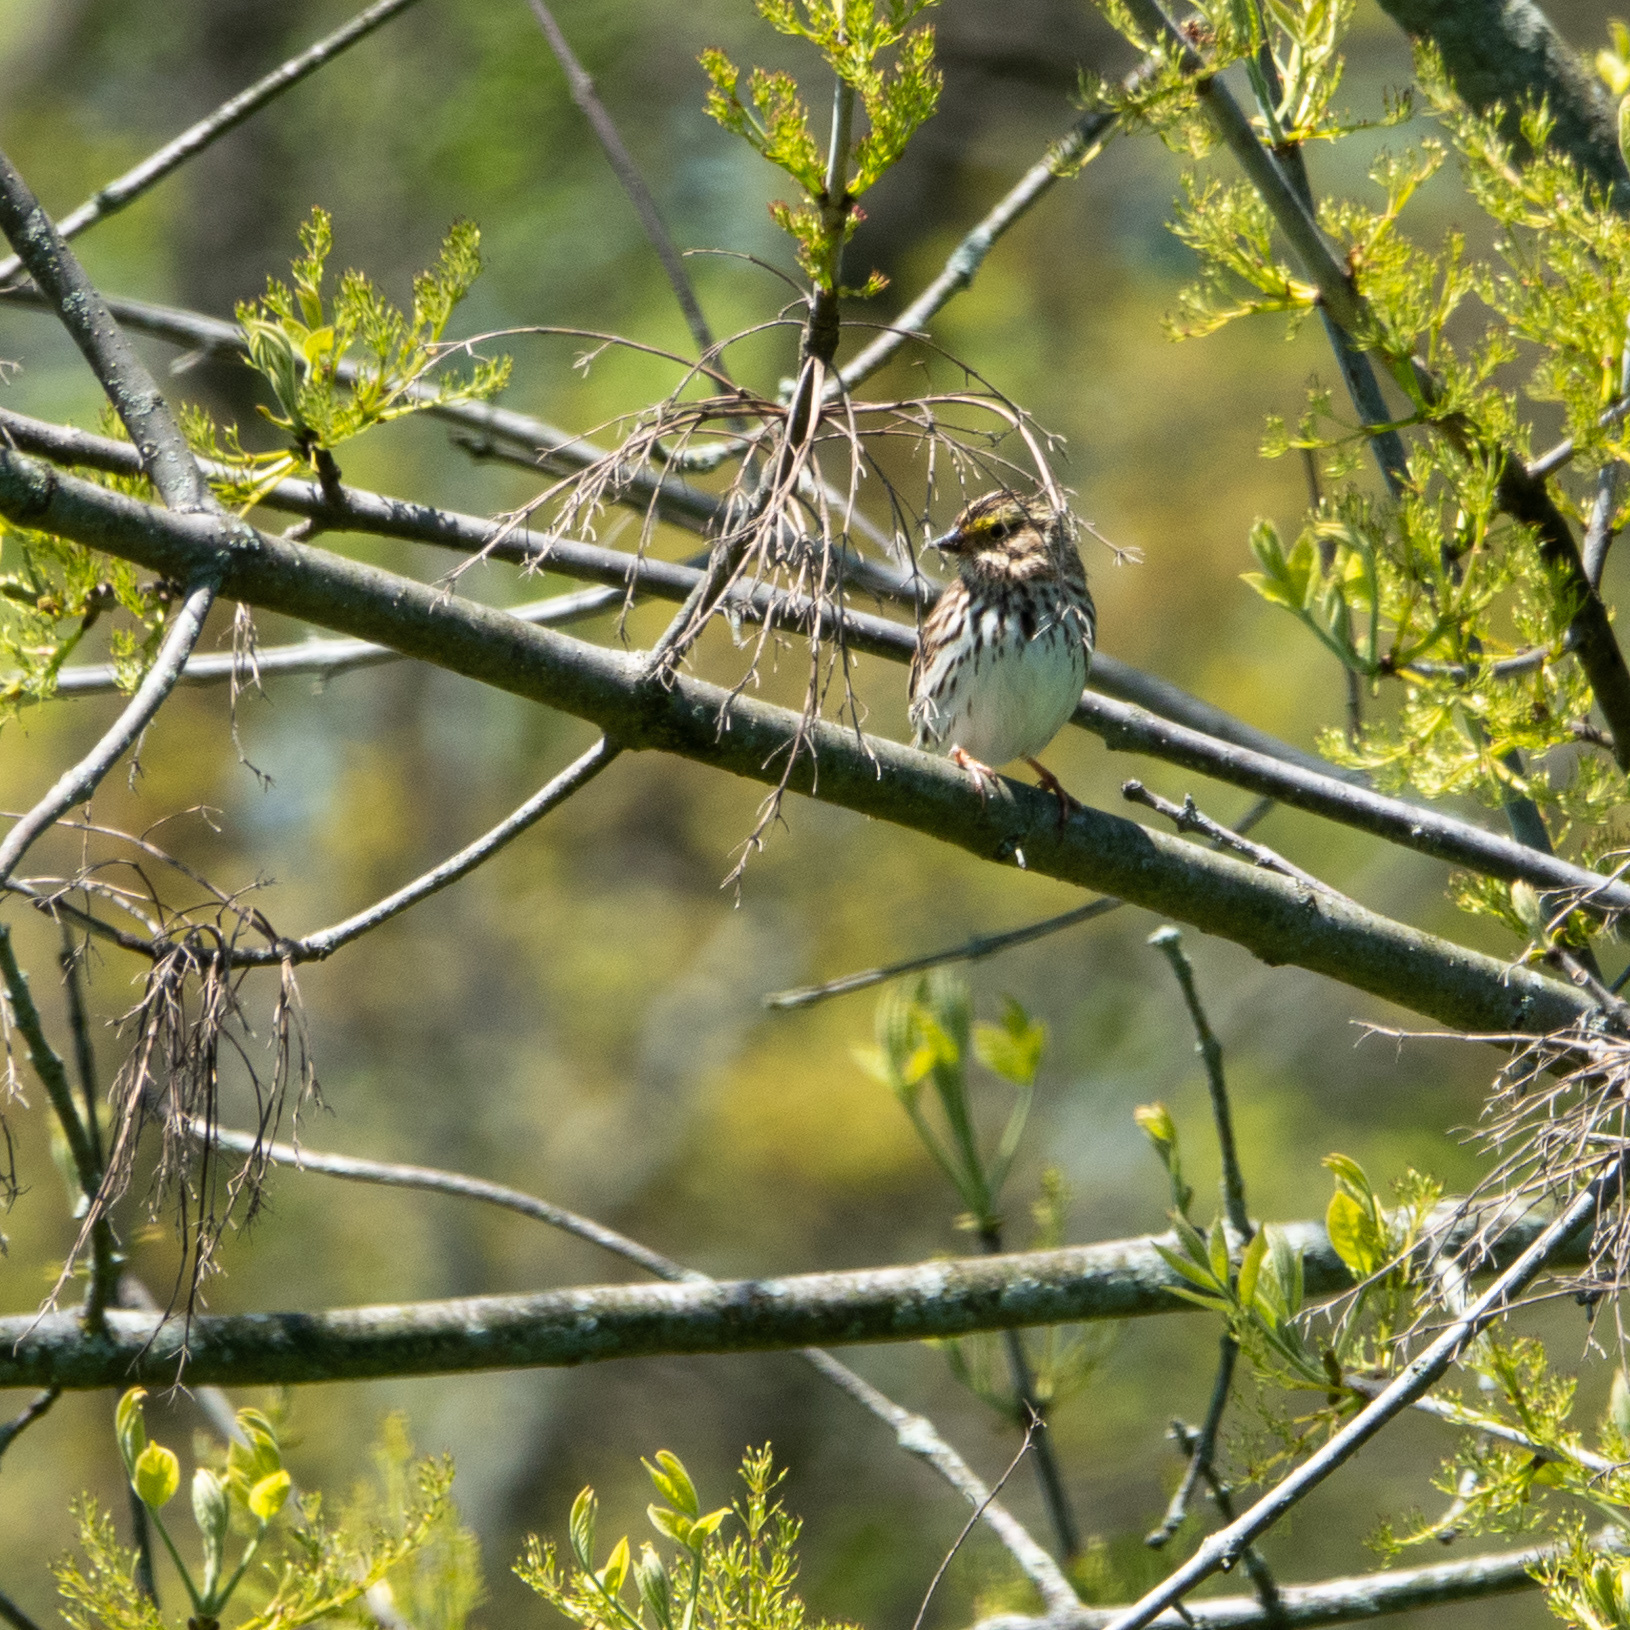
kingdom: Animalia
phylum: Chordata
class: Aves
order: Passeriformes
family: Passerellidae
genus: Passerculus
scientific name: Passerculus sandwichensis
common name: Savannah sparrow
